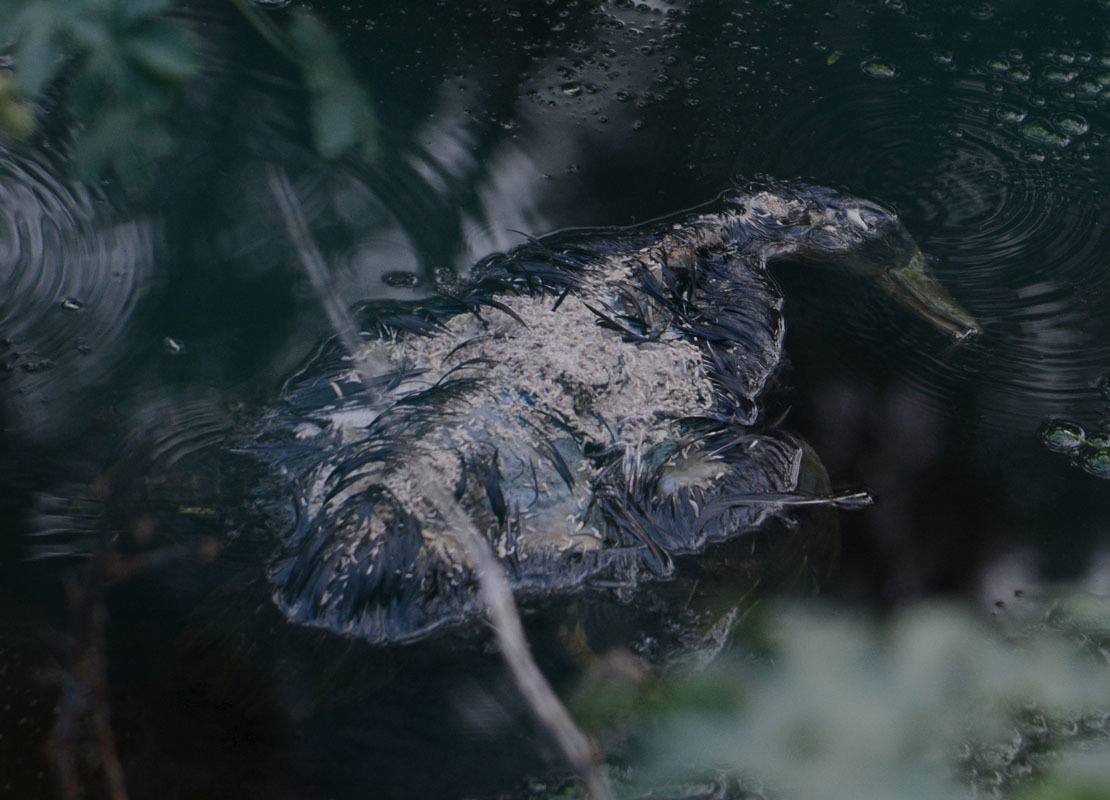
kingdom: Animalia
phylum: Chordata
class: Aves
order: Anseriformes
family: Anatidae
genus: Anas
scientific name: Anas platyrhynchos
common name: Mallard
